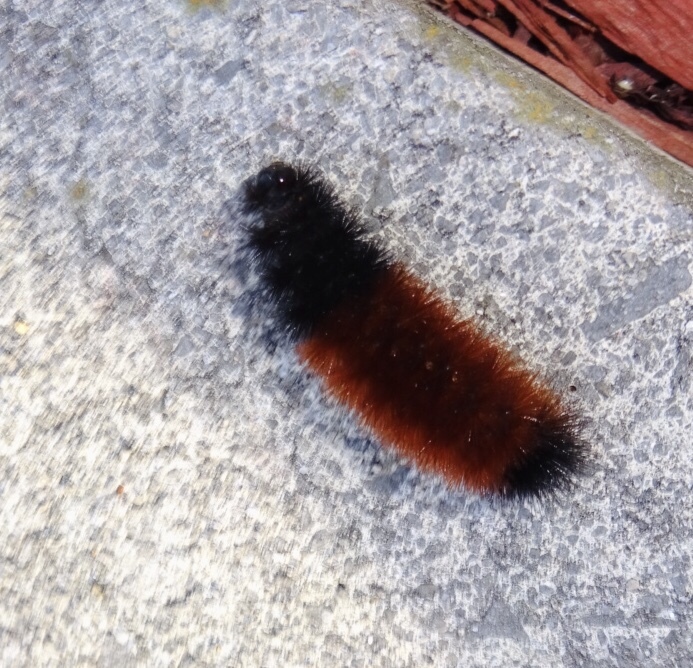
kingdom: Animalia
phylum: Arthropoda
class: Insecta
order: Lepidoptera
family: Erebidae
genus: Pyrrharctia
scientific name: Pyrrharctia isabella
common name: Isabella tiger moth
